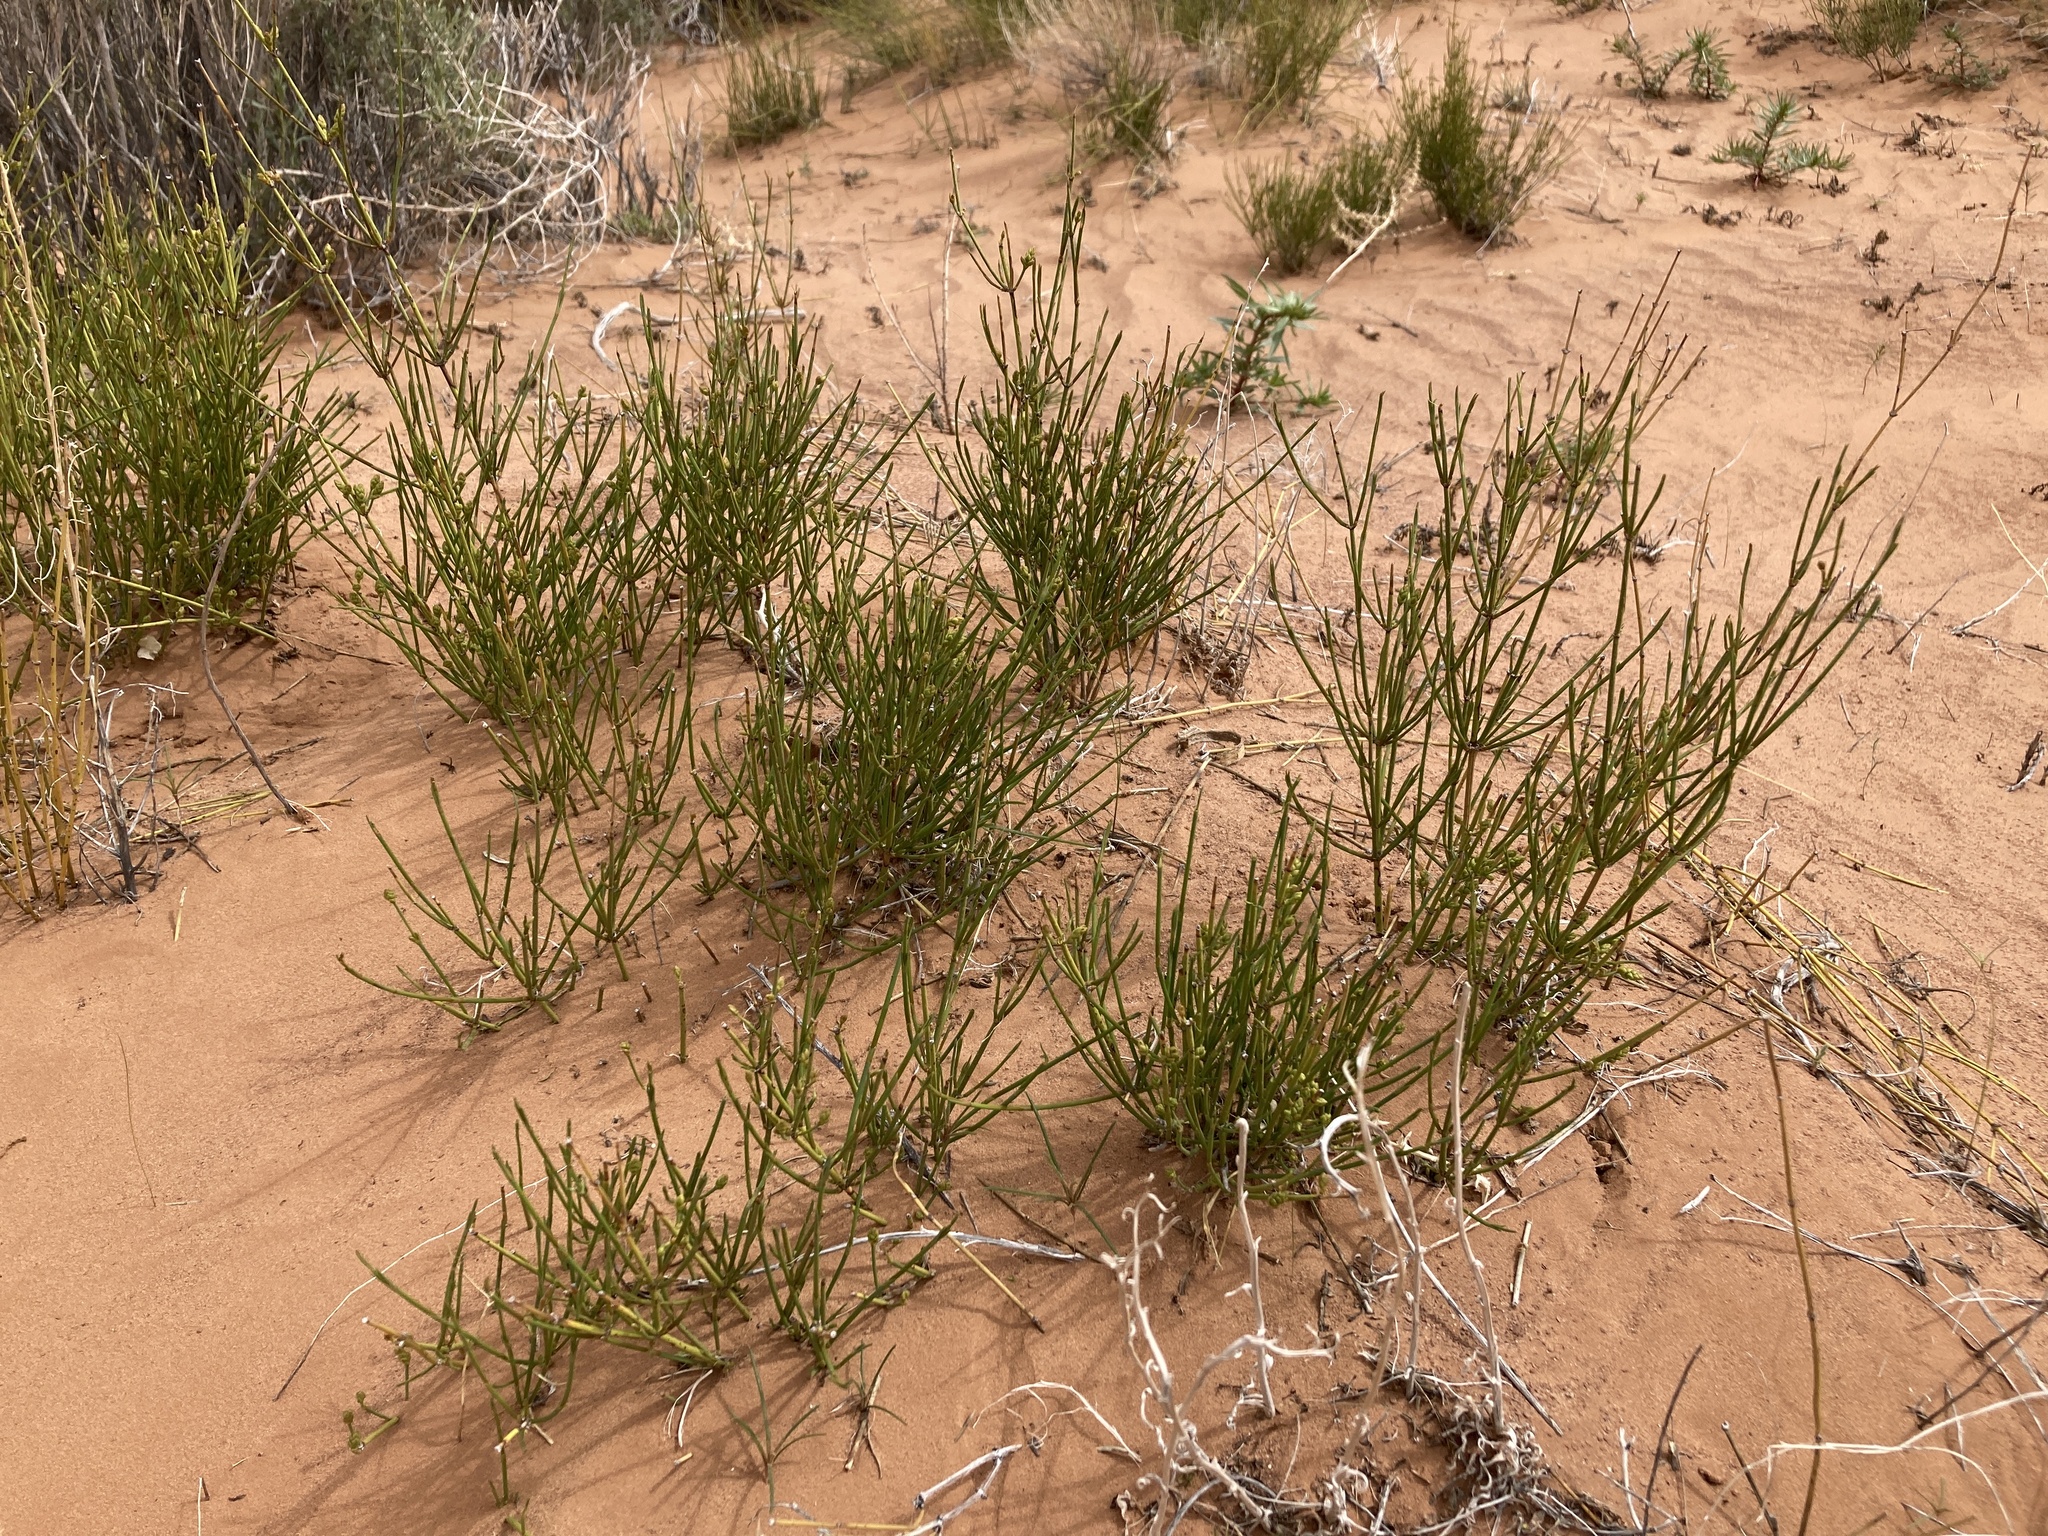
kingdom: Plantae
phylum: Tracheophyta
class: Gnetopsida
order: Ephedrales
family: Ephedraceae
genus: Ephedra
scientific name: Ephedra cutleri
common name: Cutler morning-tea
